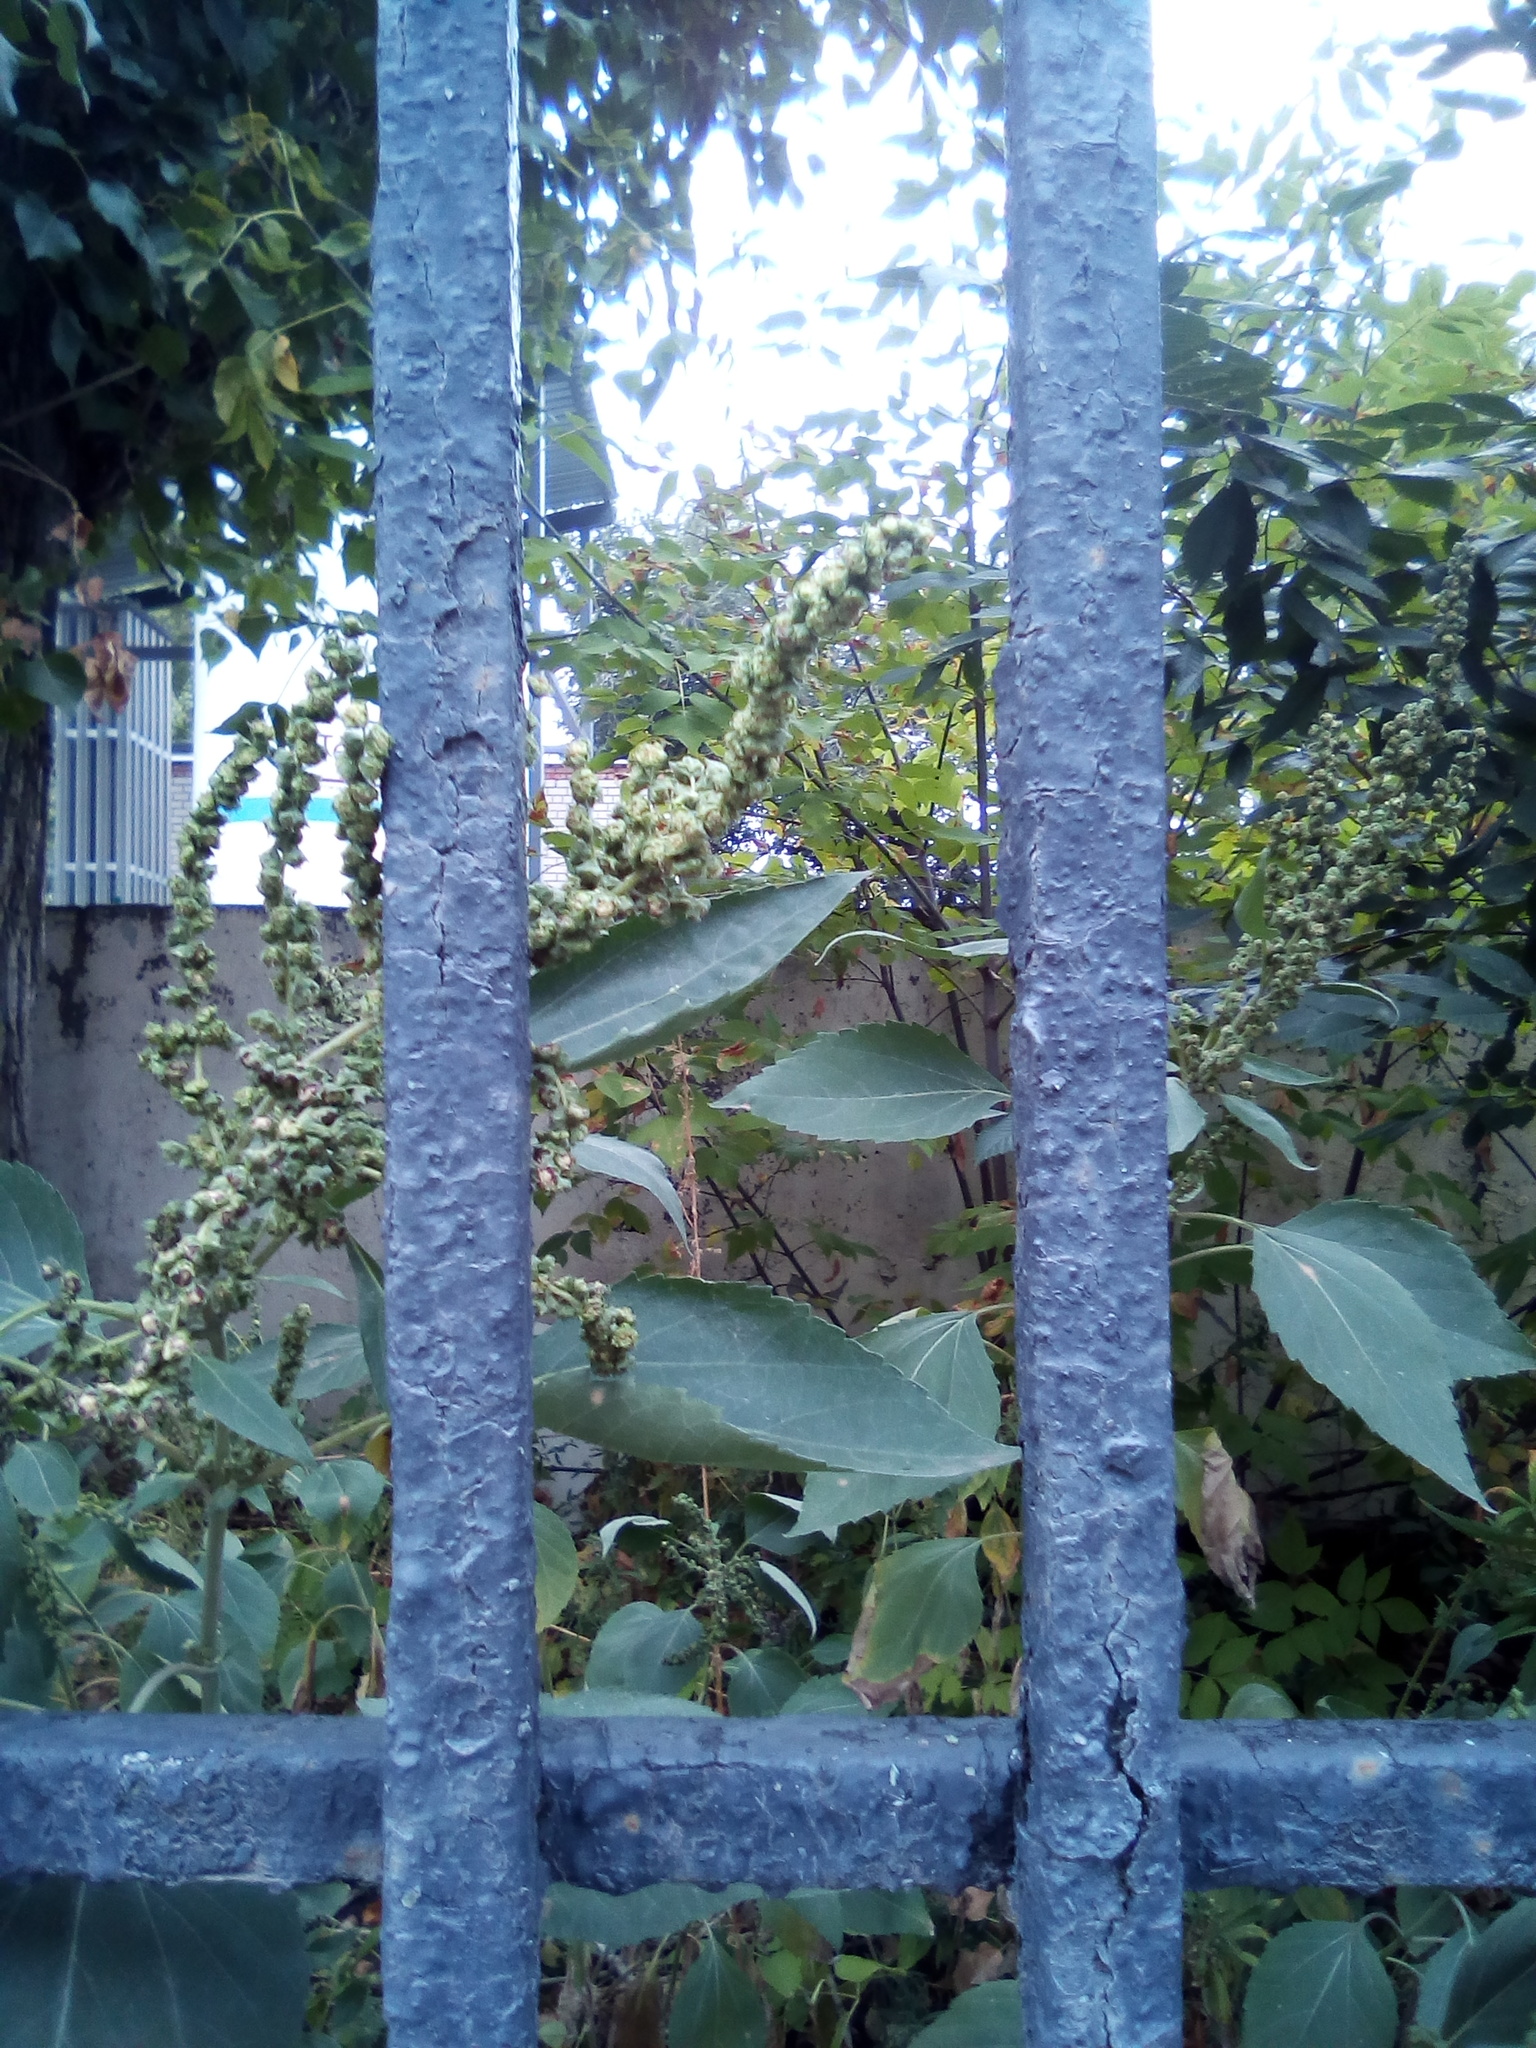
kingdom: Plantae
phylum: Tracheophyta
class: Magnoliopsida
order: Asterales
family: Asteraceae
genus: Cyclachaena
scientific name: Cyclachaena xanthiifolia
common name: Giant sumpweed
